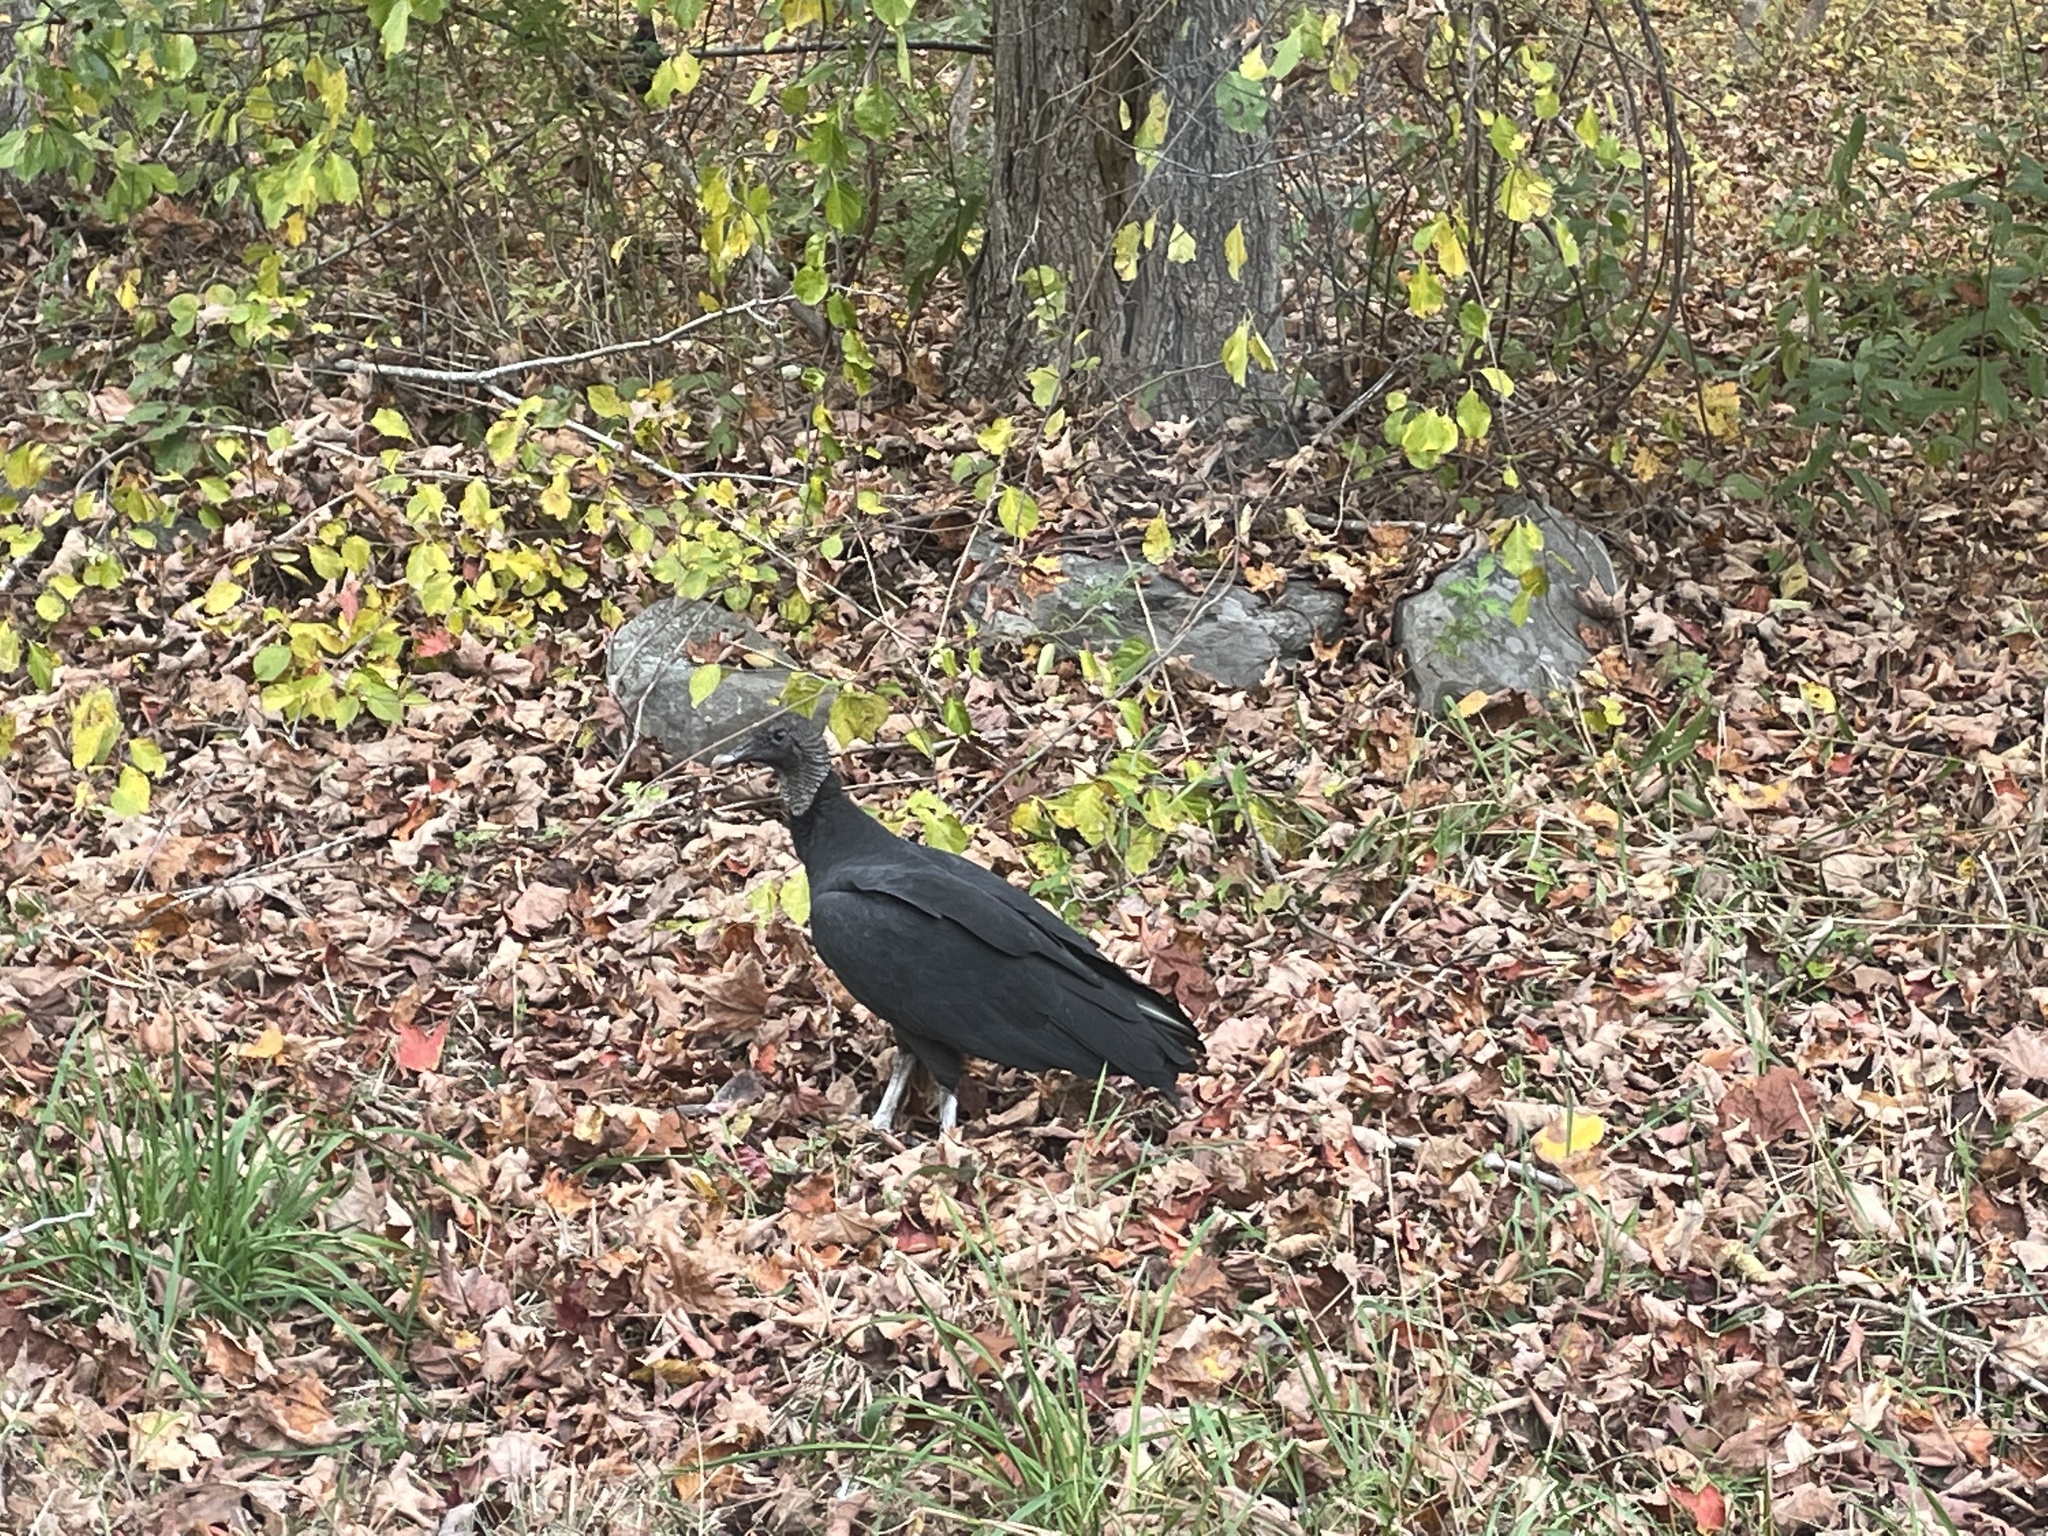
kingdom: Animalia
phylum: Chordata
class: Aves
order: Accipitriformes
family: Cathartidae
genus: Coragyps
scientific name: Coragyps atratus
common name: Black vulture
